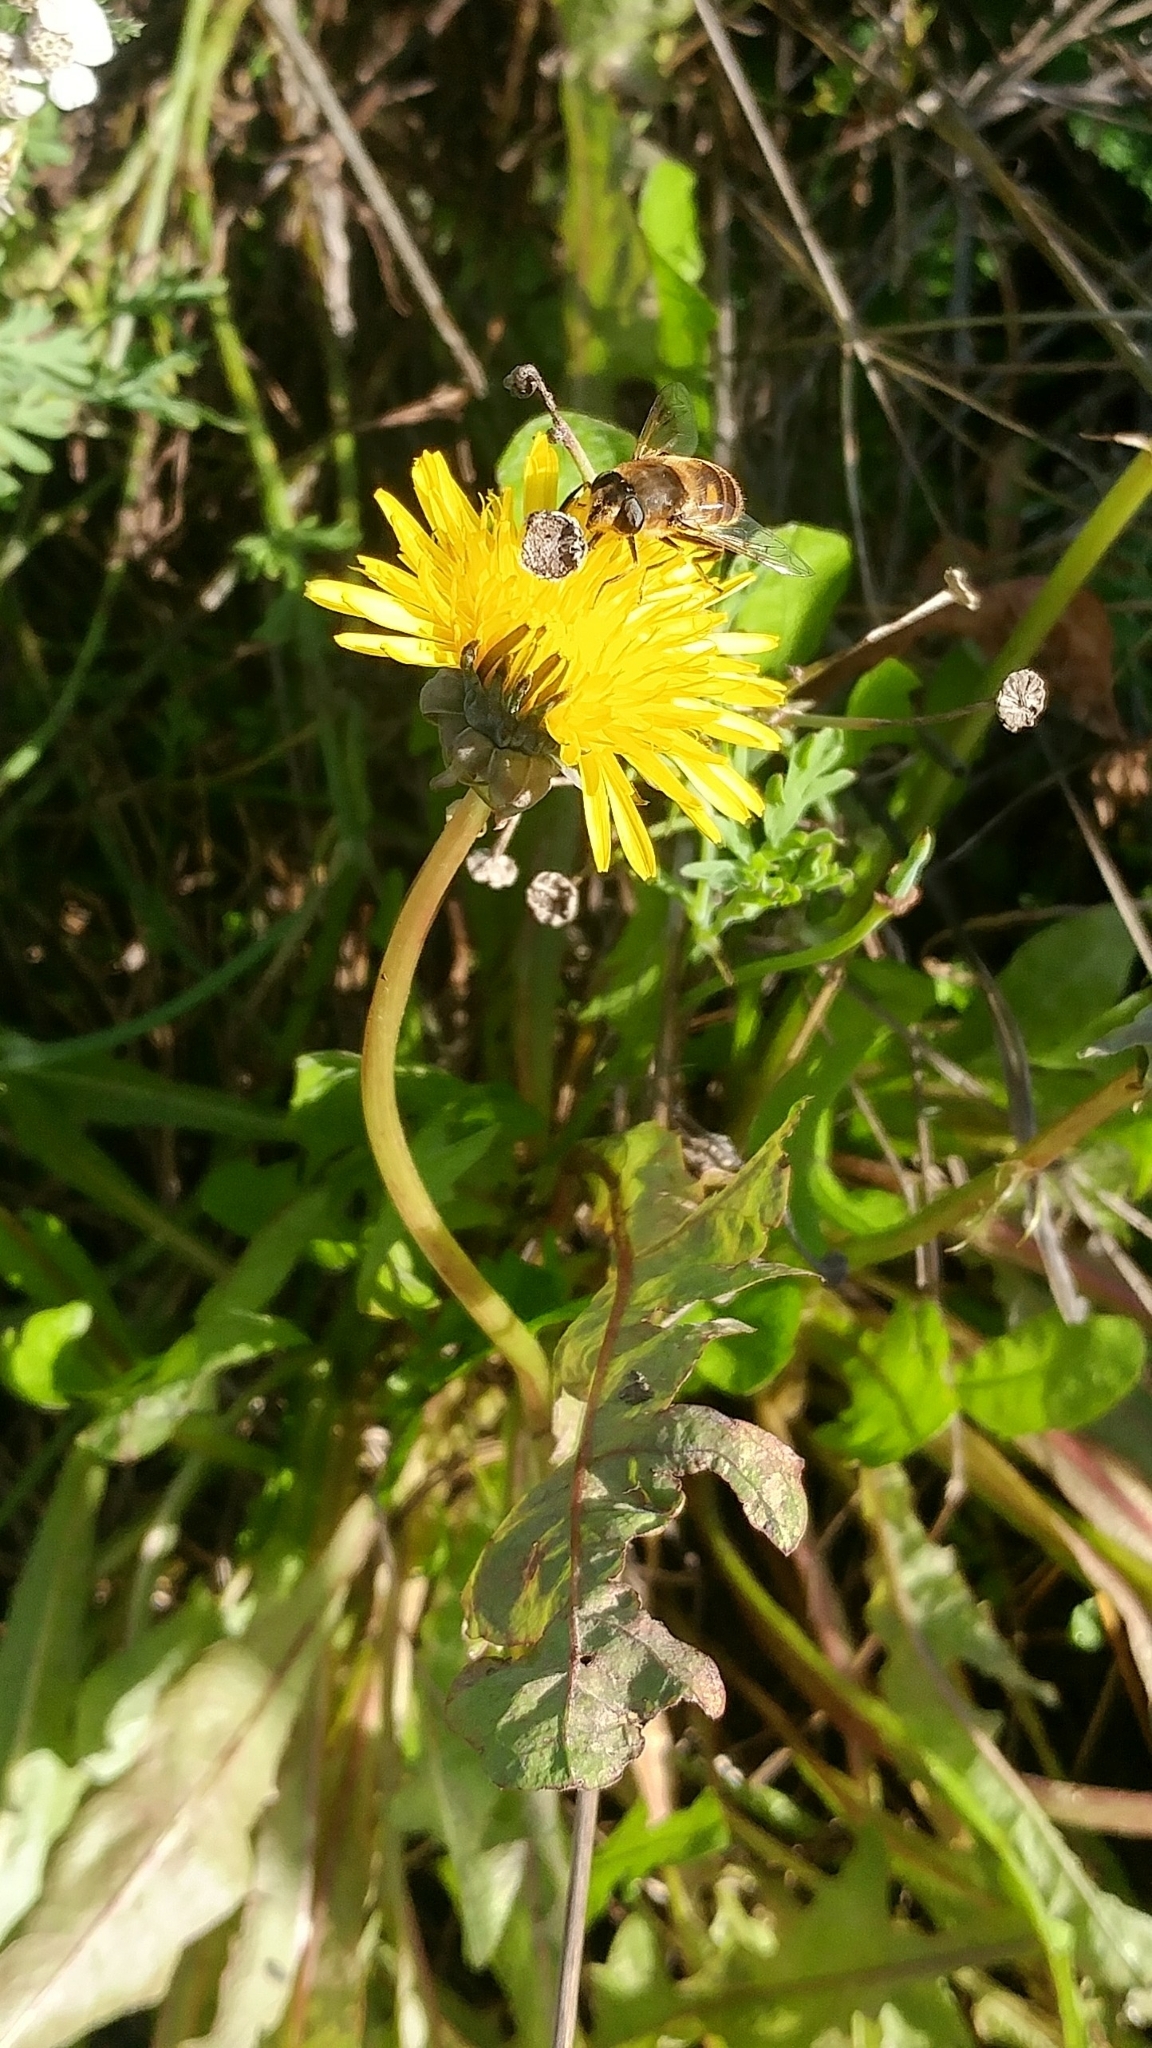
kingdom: Plantae
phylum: Tracheophyta
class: Magnoliopsida
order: Asterales
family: Asteraceae
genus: Taraxacum
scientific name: Taraxacum officinale
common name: Common dandelion
